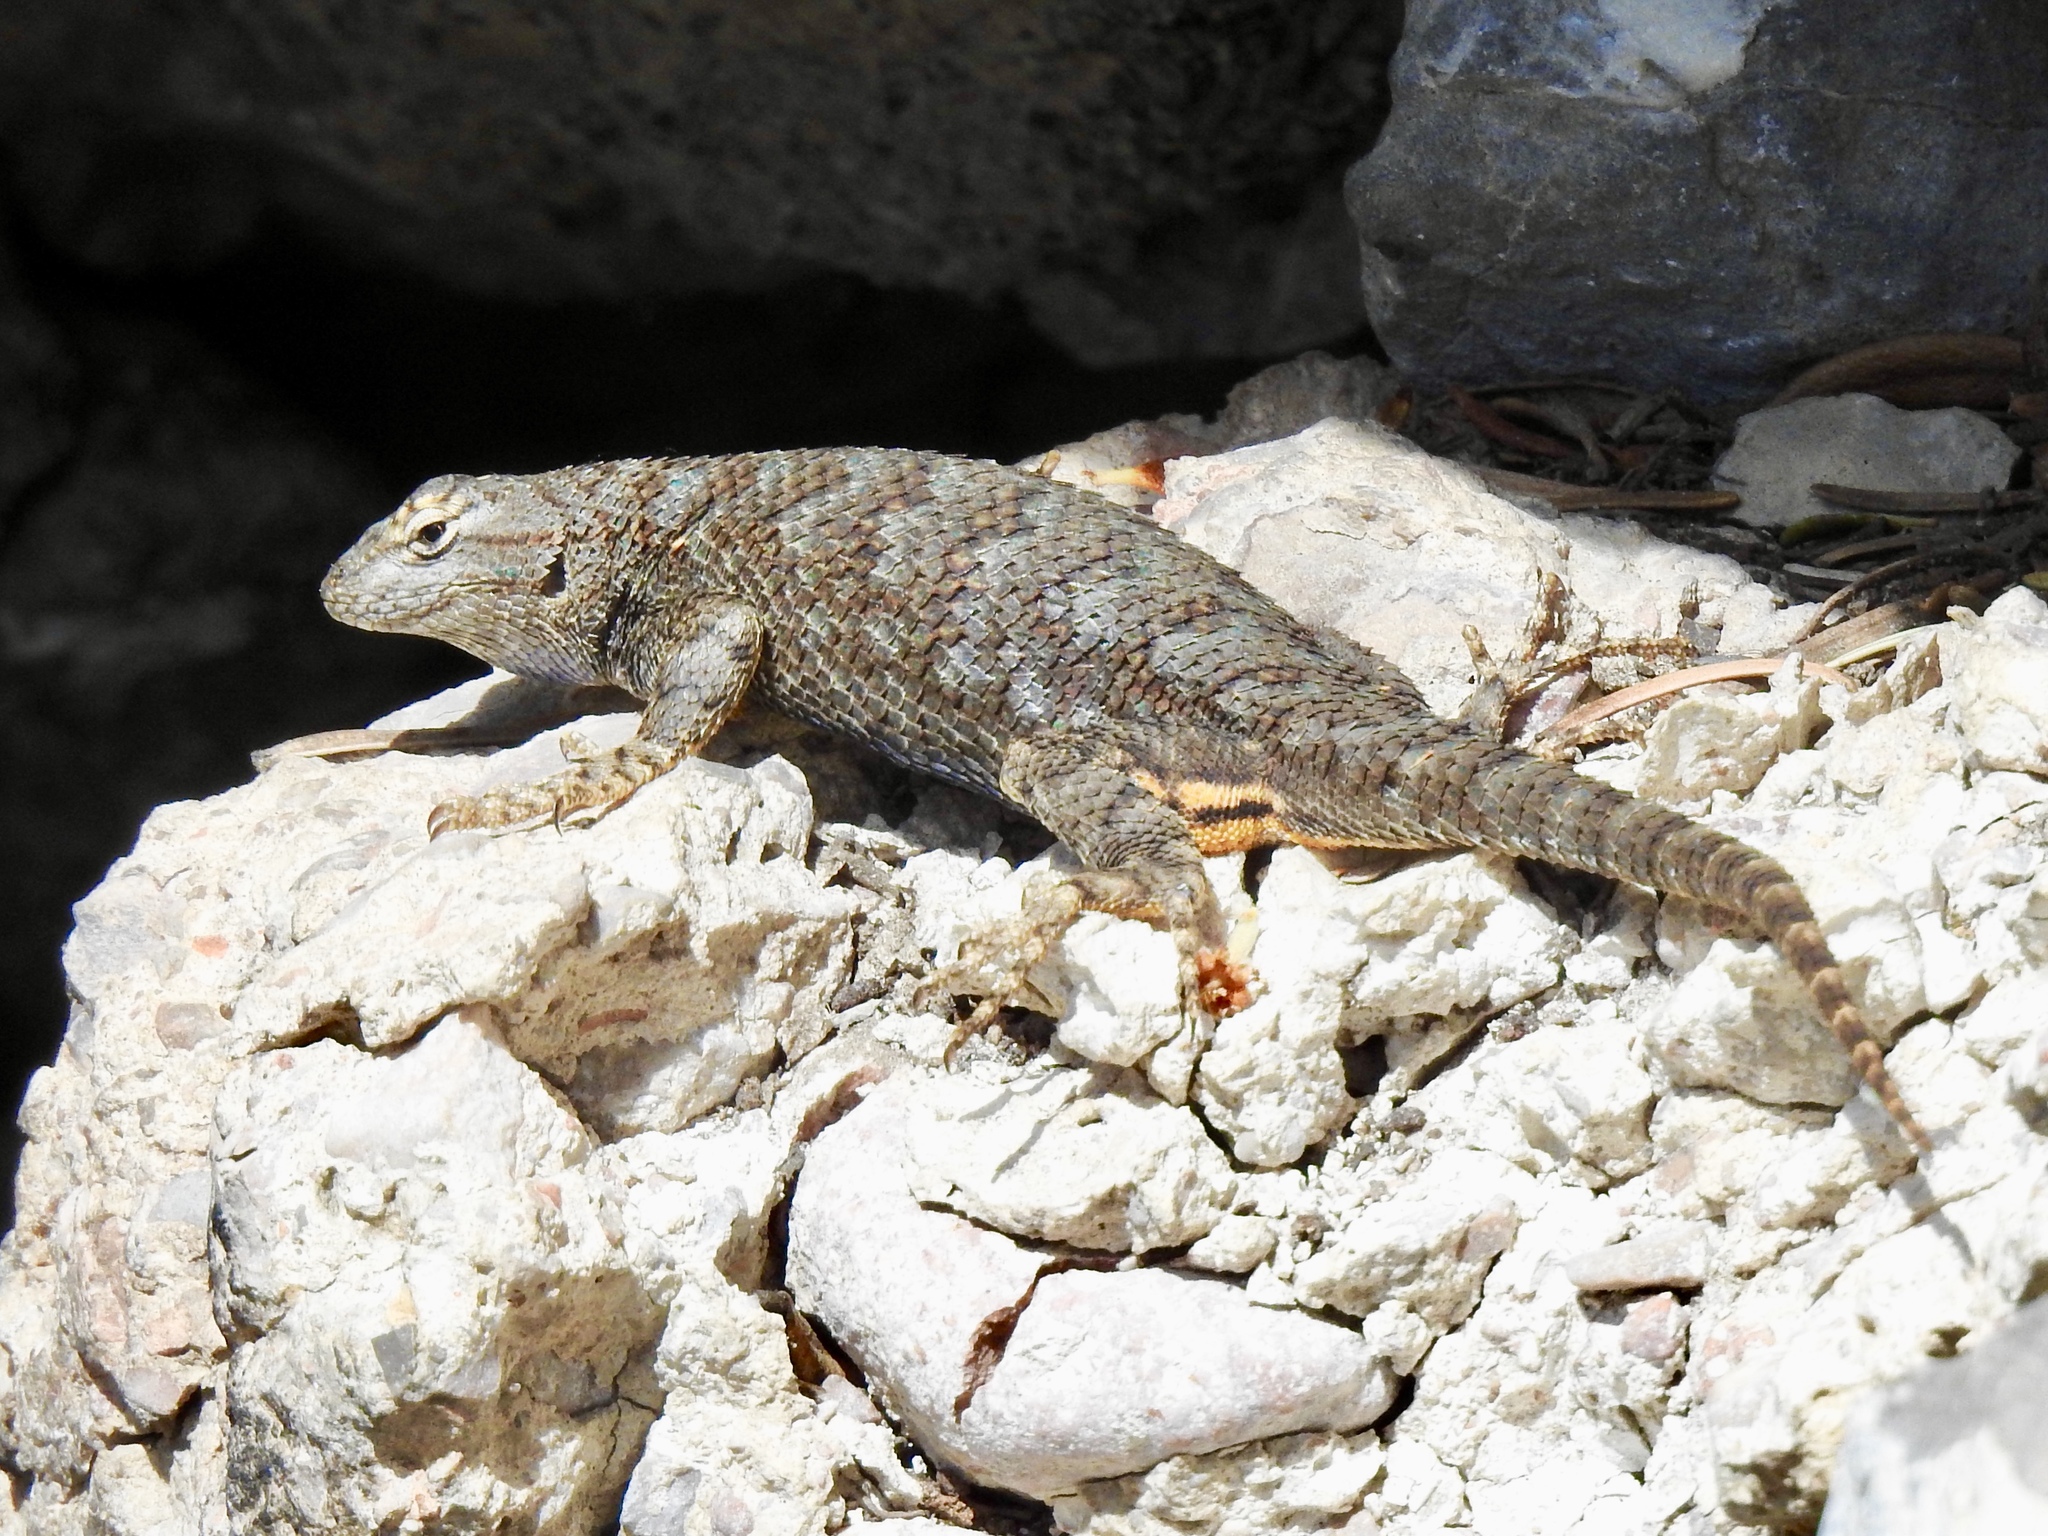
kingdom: Animalia
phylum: Chordata
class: Squamata
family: Phrynosomatidae
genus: Sceloporus
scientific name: Sceloporus occidentalis
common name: Western fence lizard
